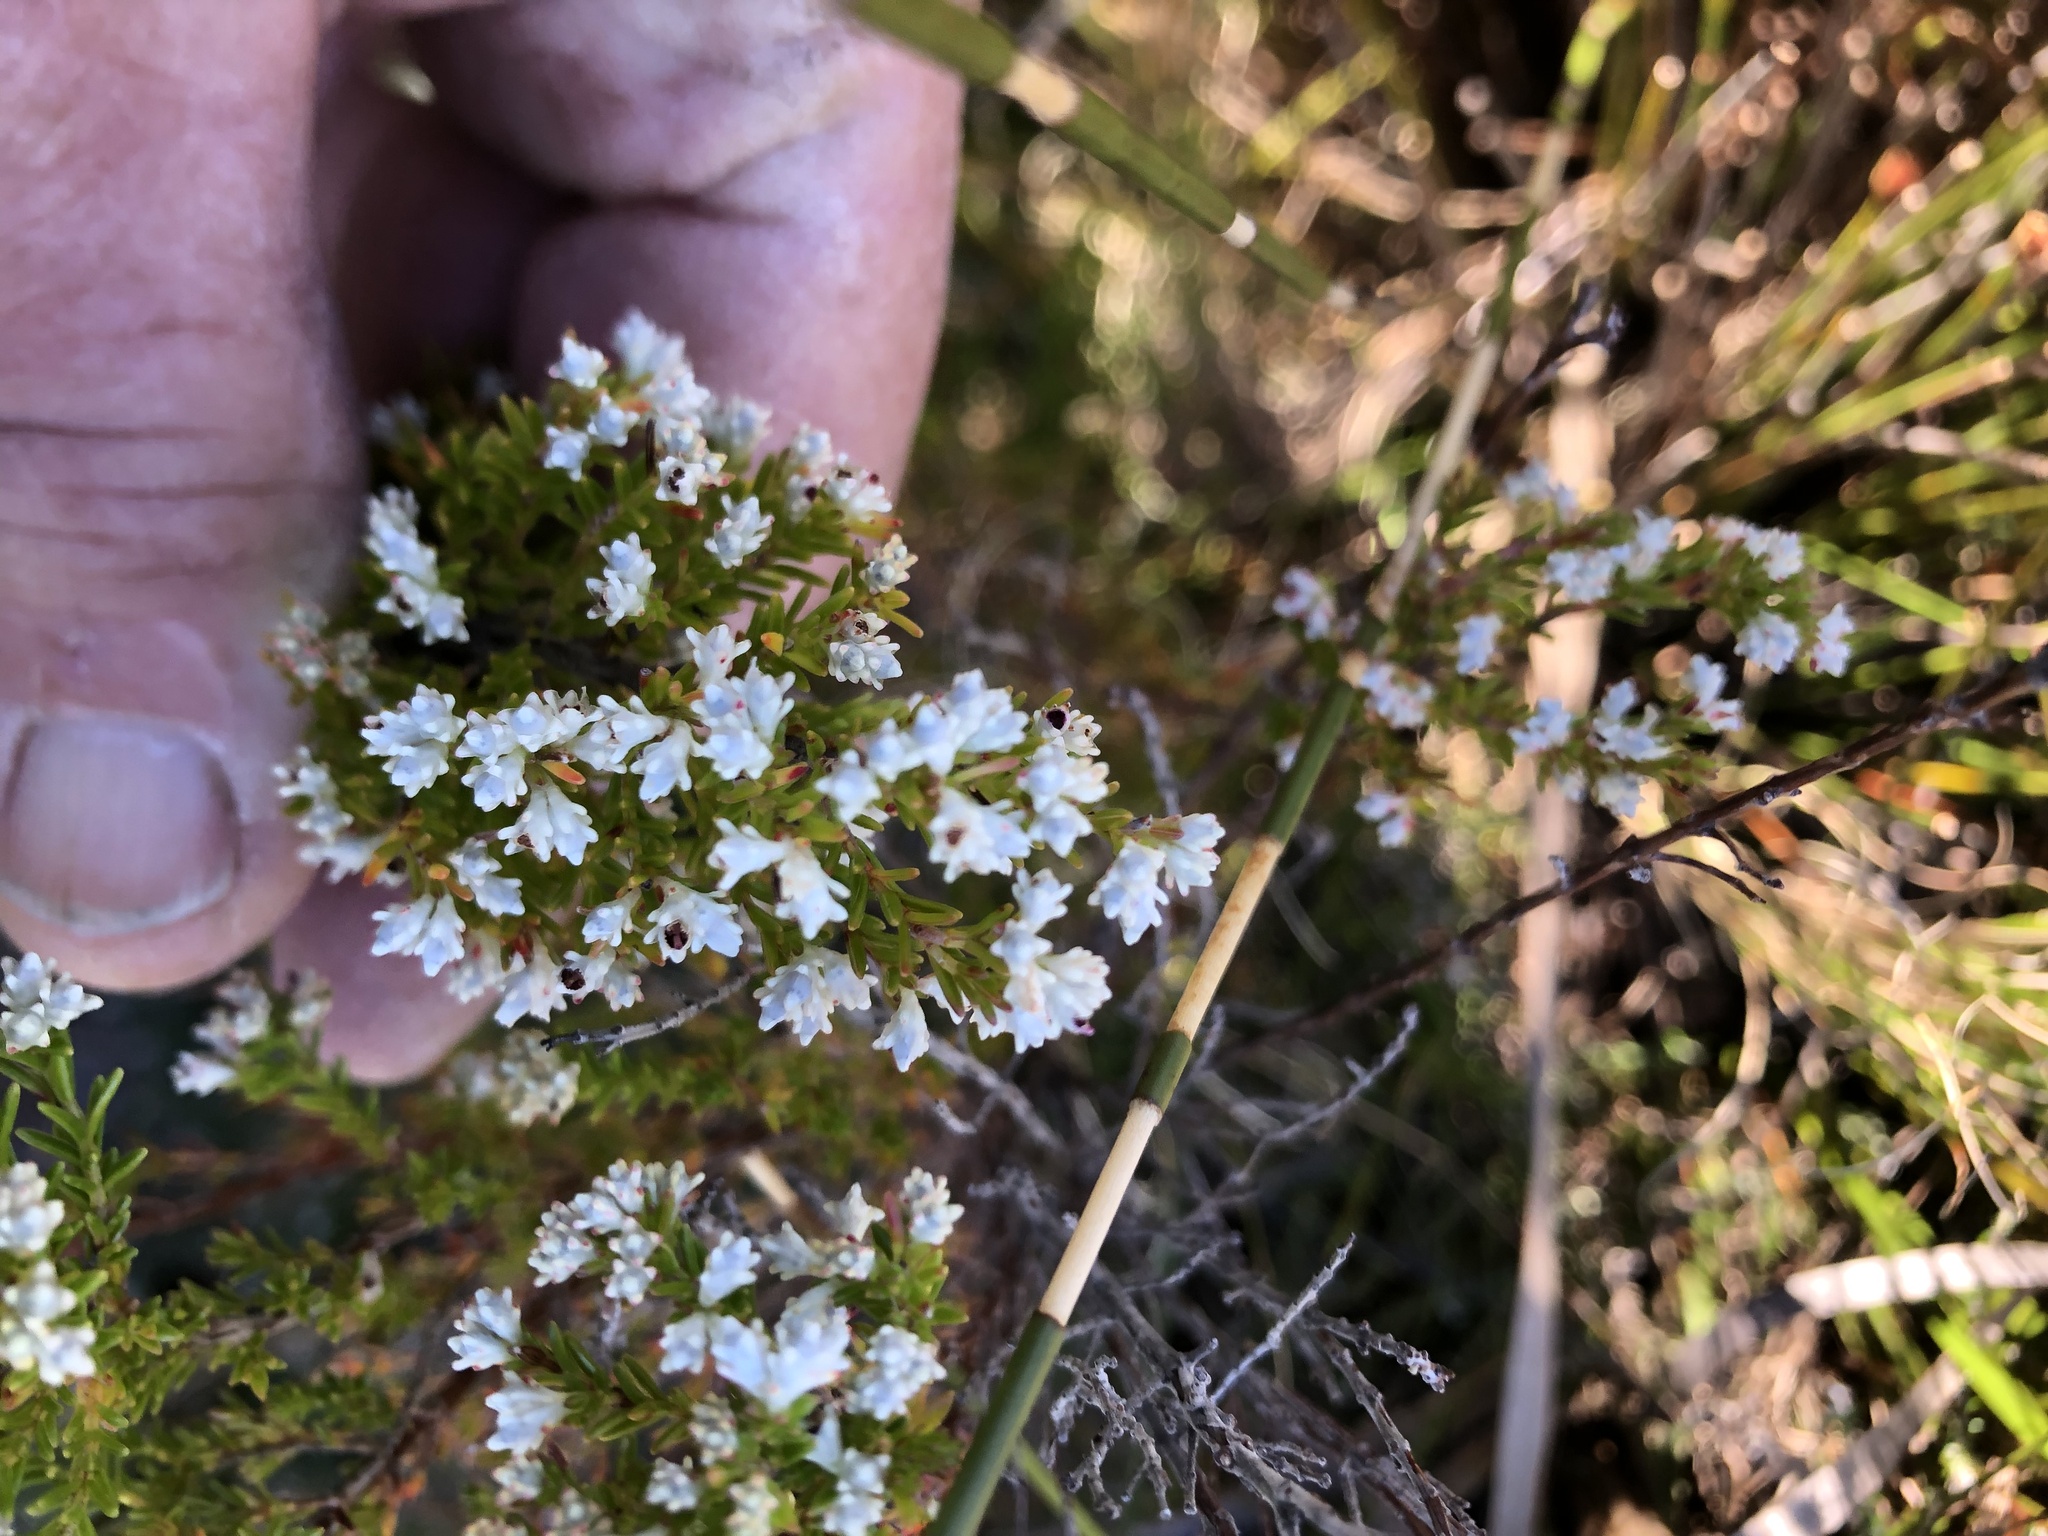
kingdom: Plantae
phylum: Tracheophyta
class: Magnoliopsida
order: Ericales
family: Ericaceae
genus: Erica
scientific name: Erica diosmifolia
